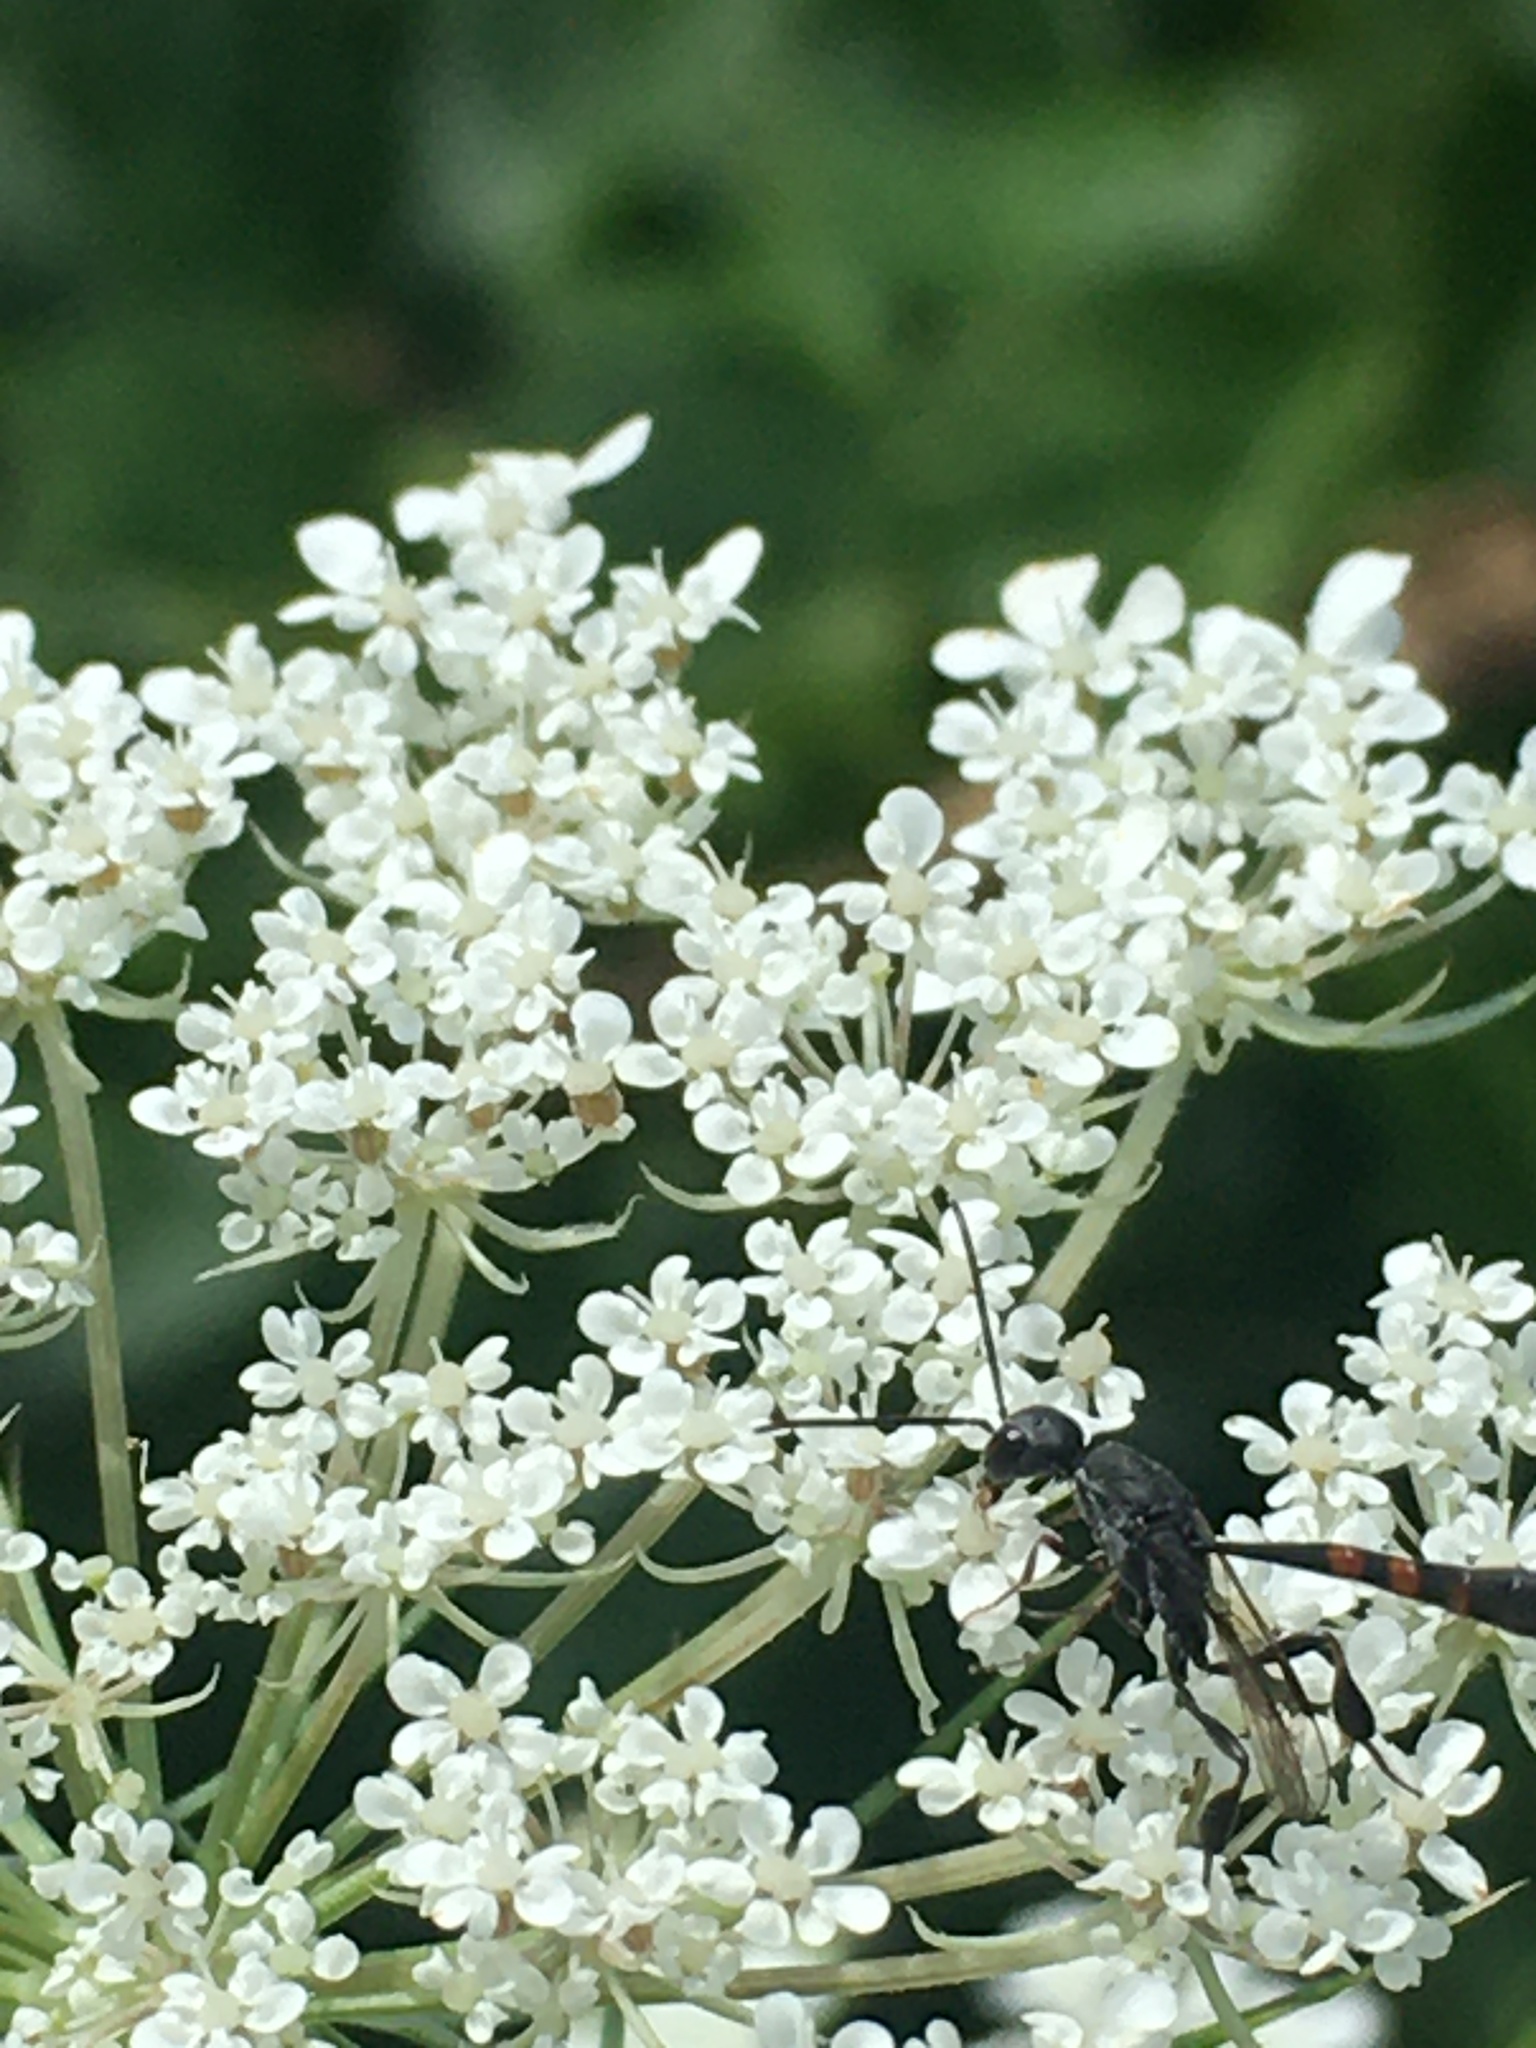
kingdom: Animalia
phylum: Arthropoda
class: Insecta
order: Hymenoptera
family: Gasteruptiidae
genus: Gasteruption
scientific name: Gasteruption
